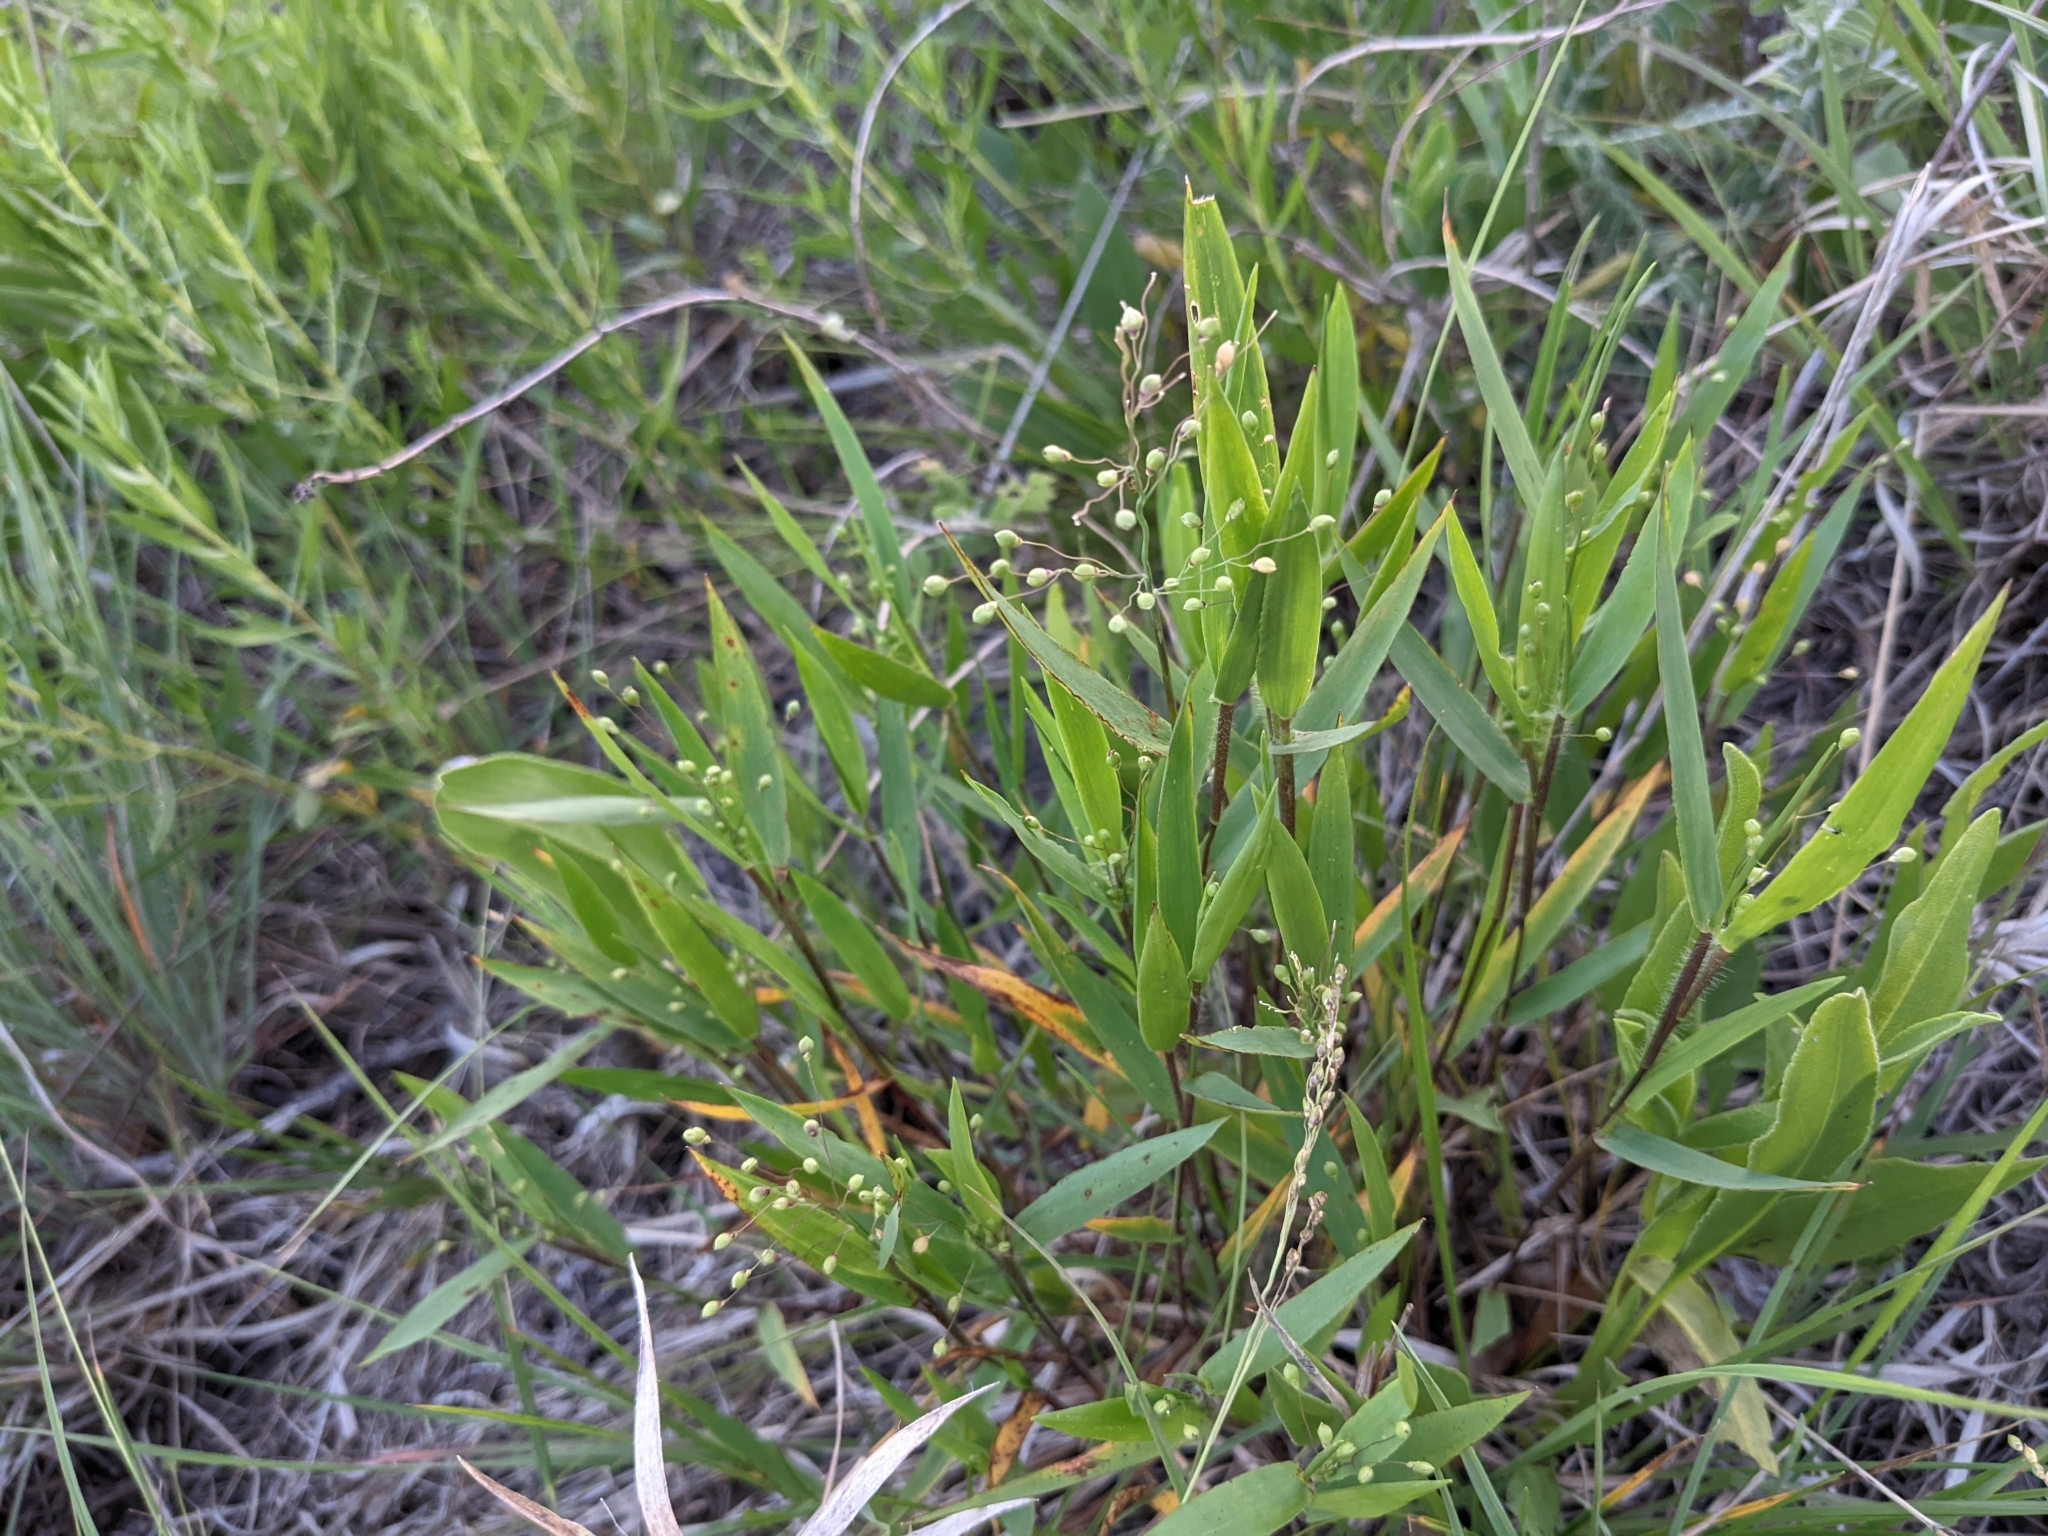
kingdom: Plantae
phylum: Tracheophyta
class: Liliopsida
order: Poales
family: Poaceae
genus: Dichanthelium
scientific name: Dichanthelium oligosanthes
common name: Few-anther obscuregrass
